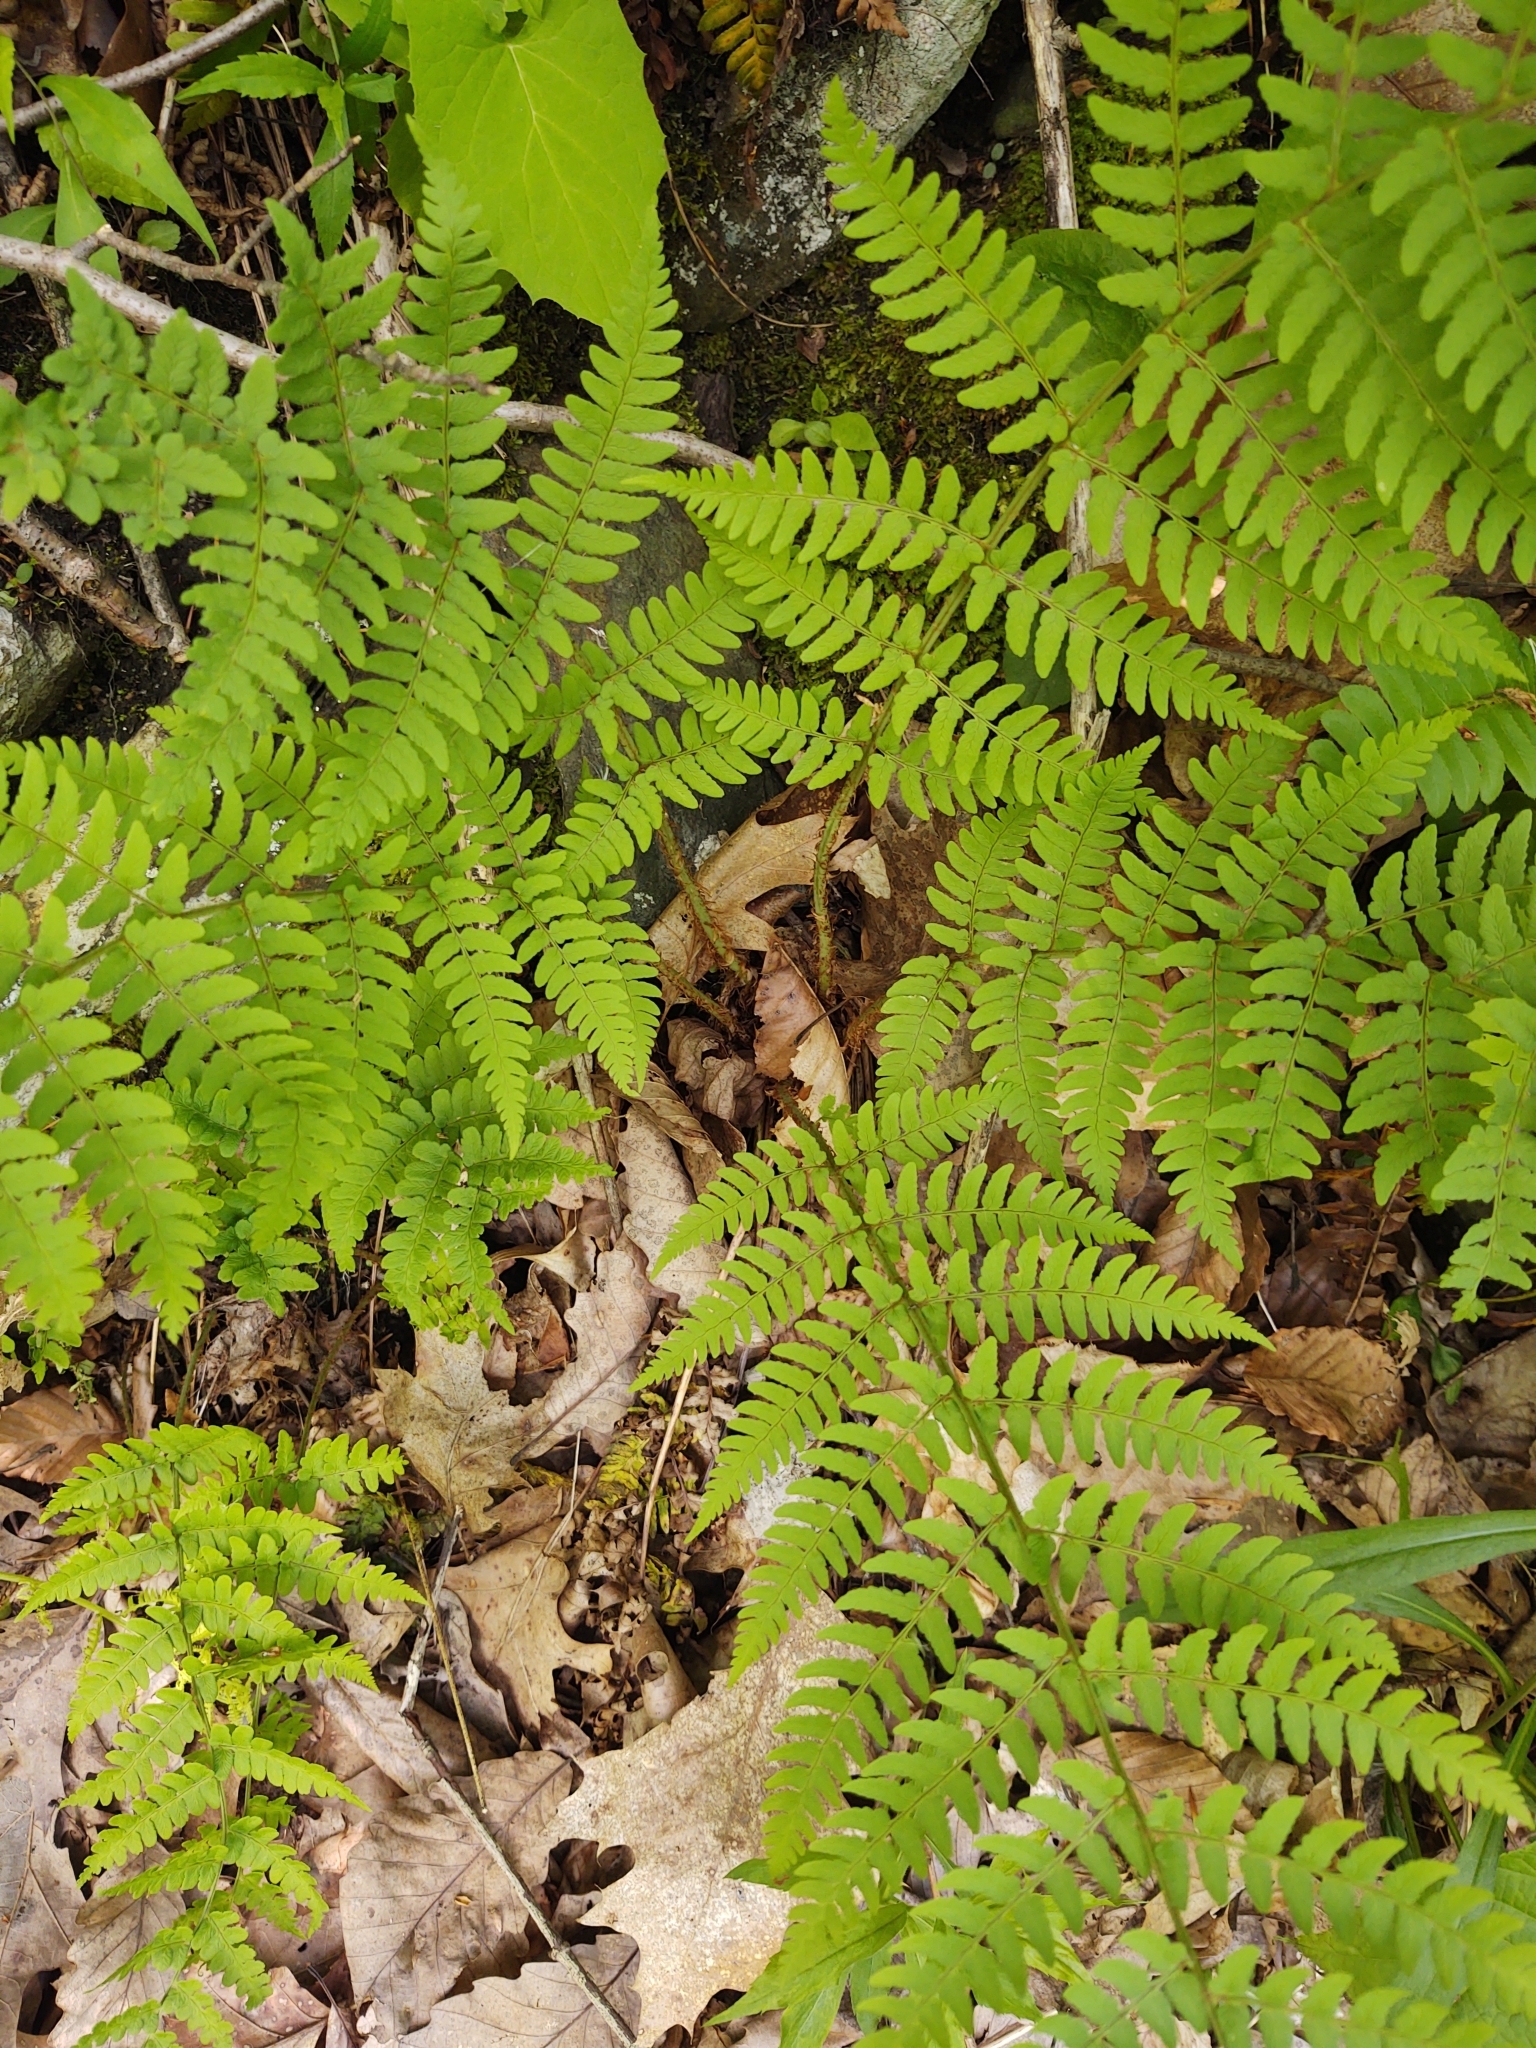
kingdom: Plantae
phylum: Tracheophyta
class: Polypodiopsida
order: Polypodiales
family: Dryopteridaceae
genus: Dryopteris
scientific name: Dryopteris marginalis
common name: Marginal wood fern
